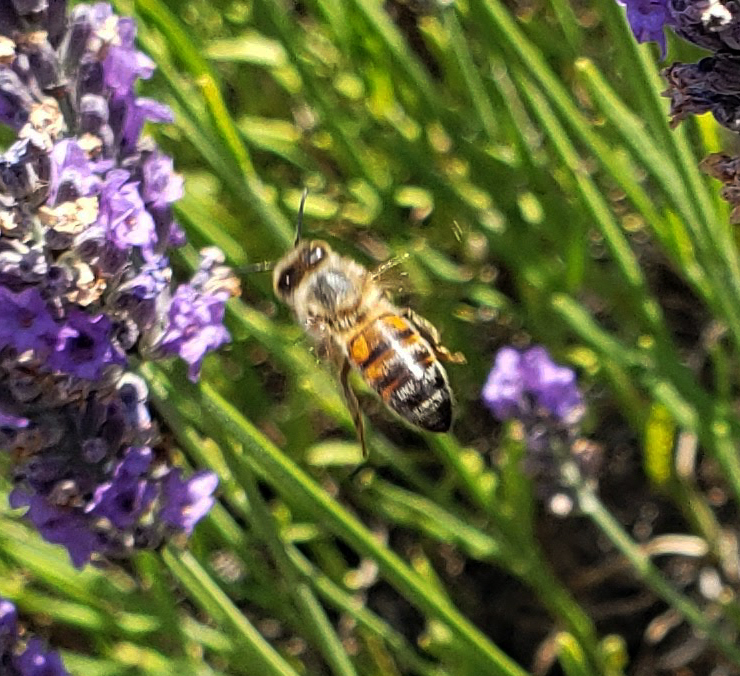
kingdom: Animalia
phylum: Arthropoda
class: Insecta
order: Hymenoptera
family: Apidae
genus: Apis
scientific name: Apis mellifera
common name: Honey bee
